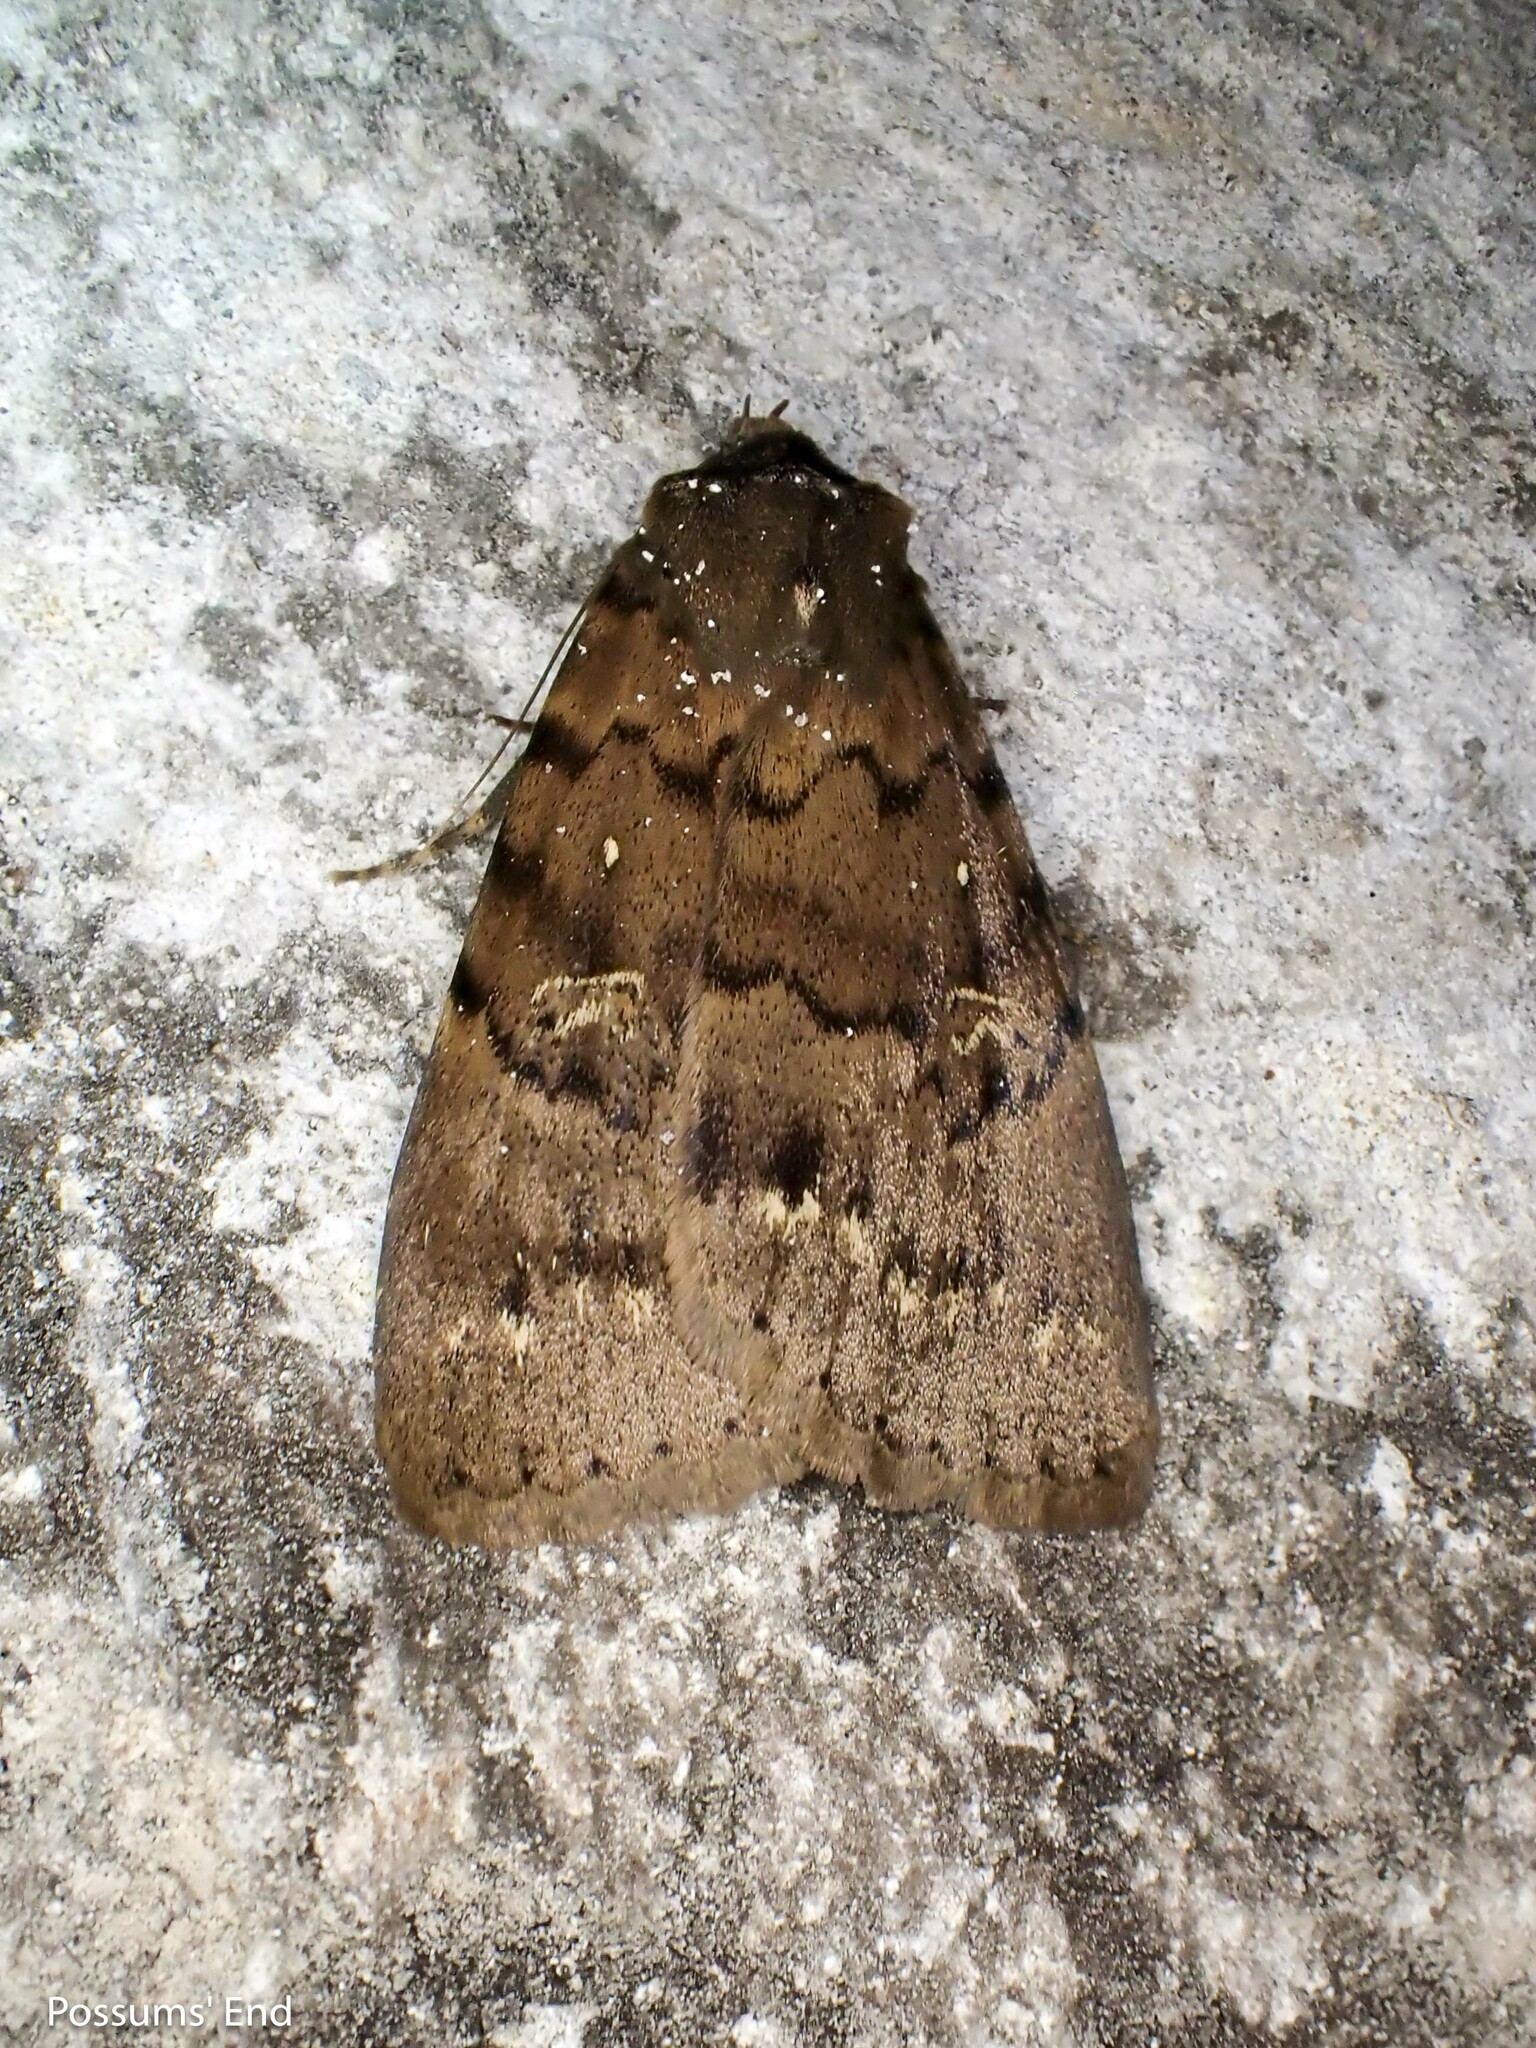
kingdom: Animalia
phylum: Arthropoda
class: Insecta
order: Lepidoptera
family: Erebidae
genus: Apopestes
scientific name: Apopestes spectrum
